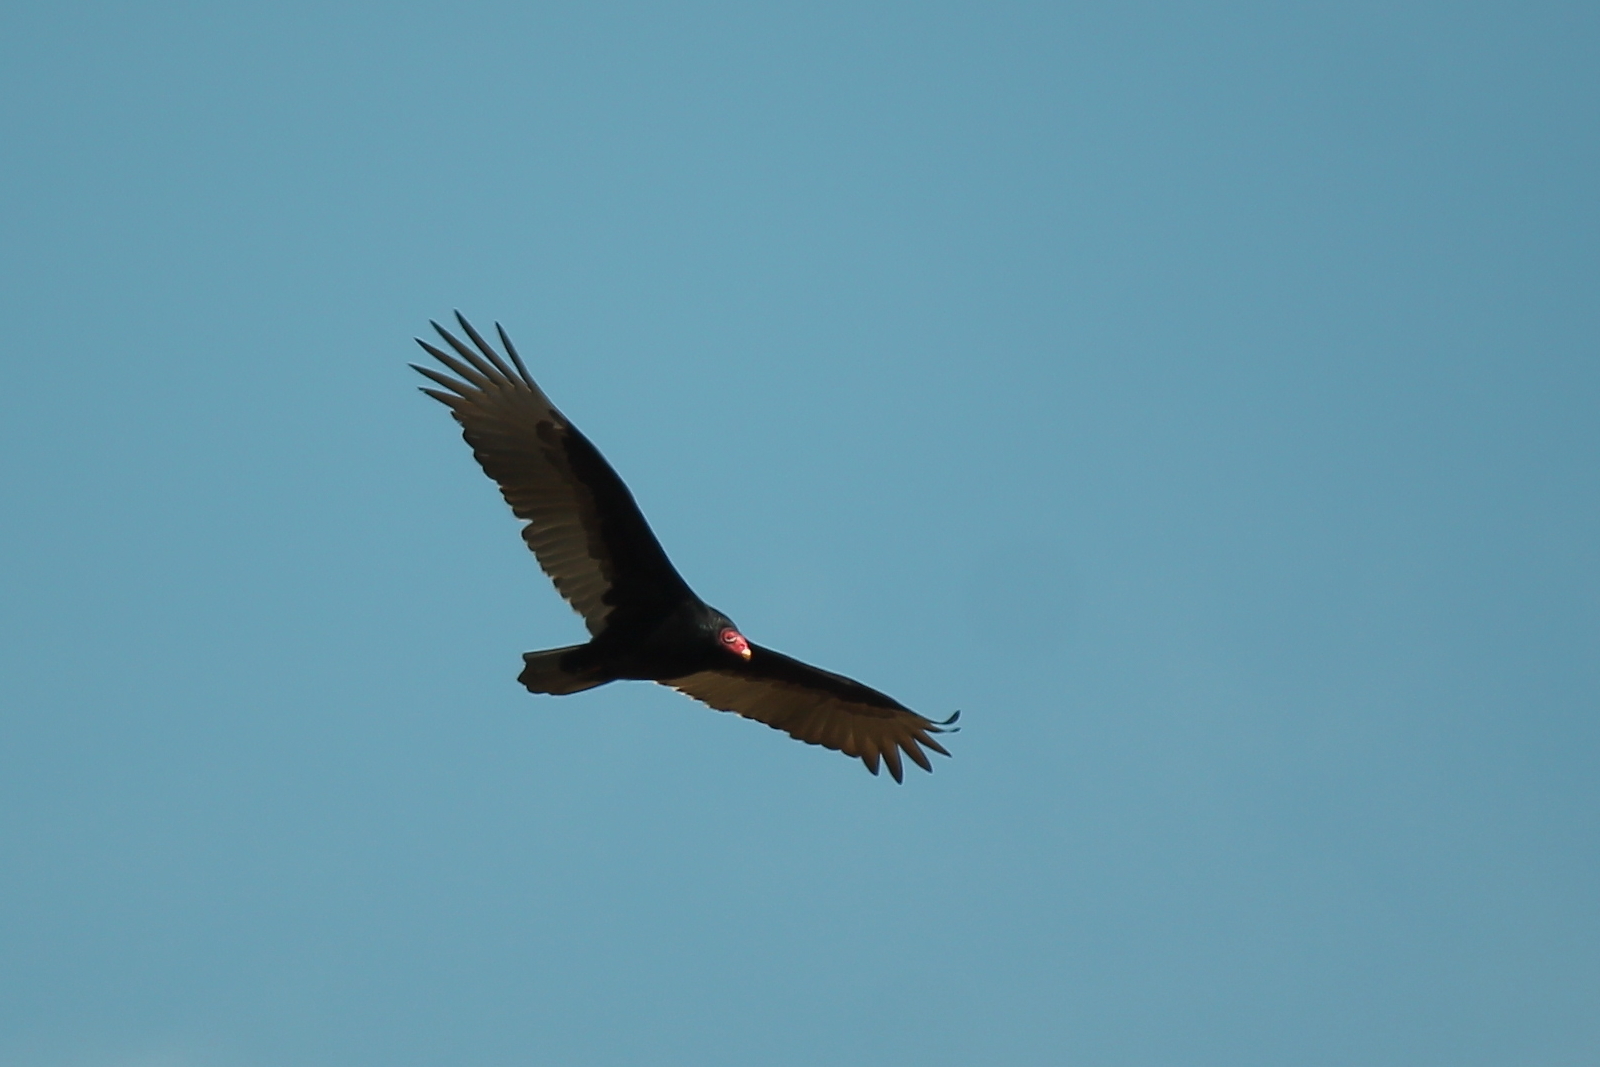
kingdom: Animalia
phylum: Chordata
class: Aves
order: Accipitriformes
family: Cathartidae
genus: Cathartes
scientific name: Cathartes aura
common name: Turkey vulture
